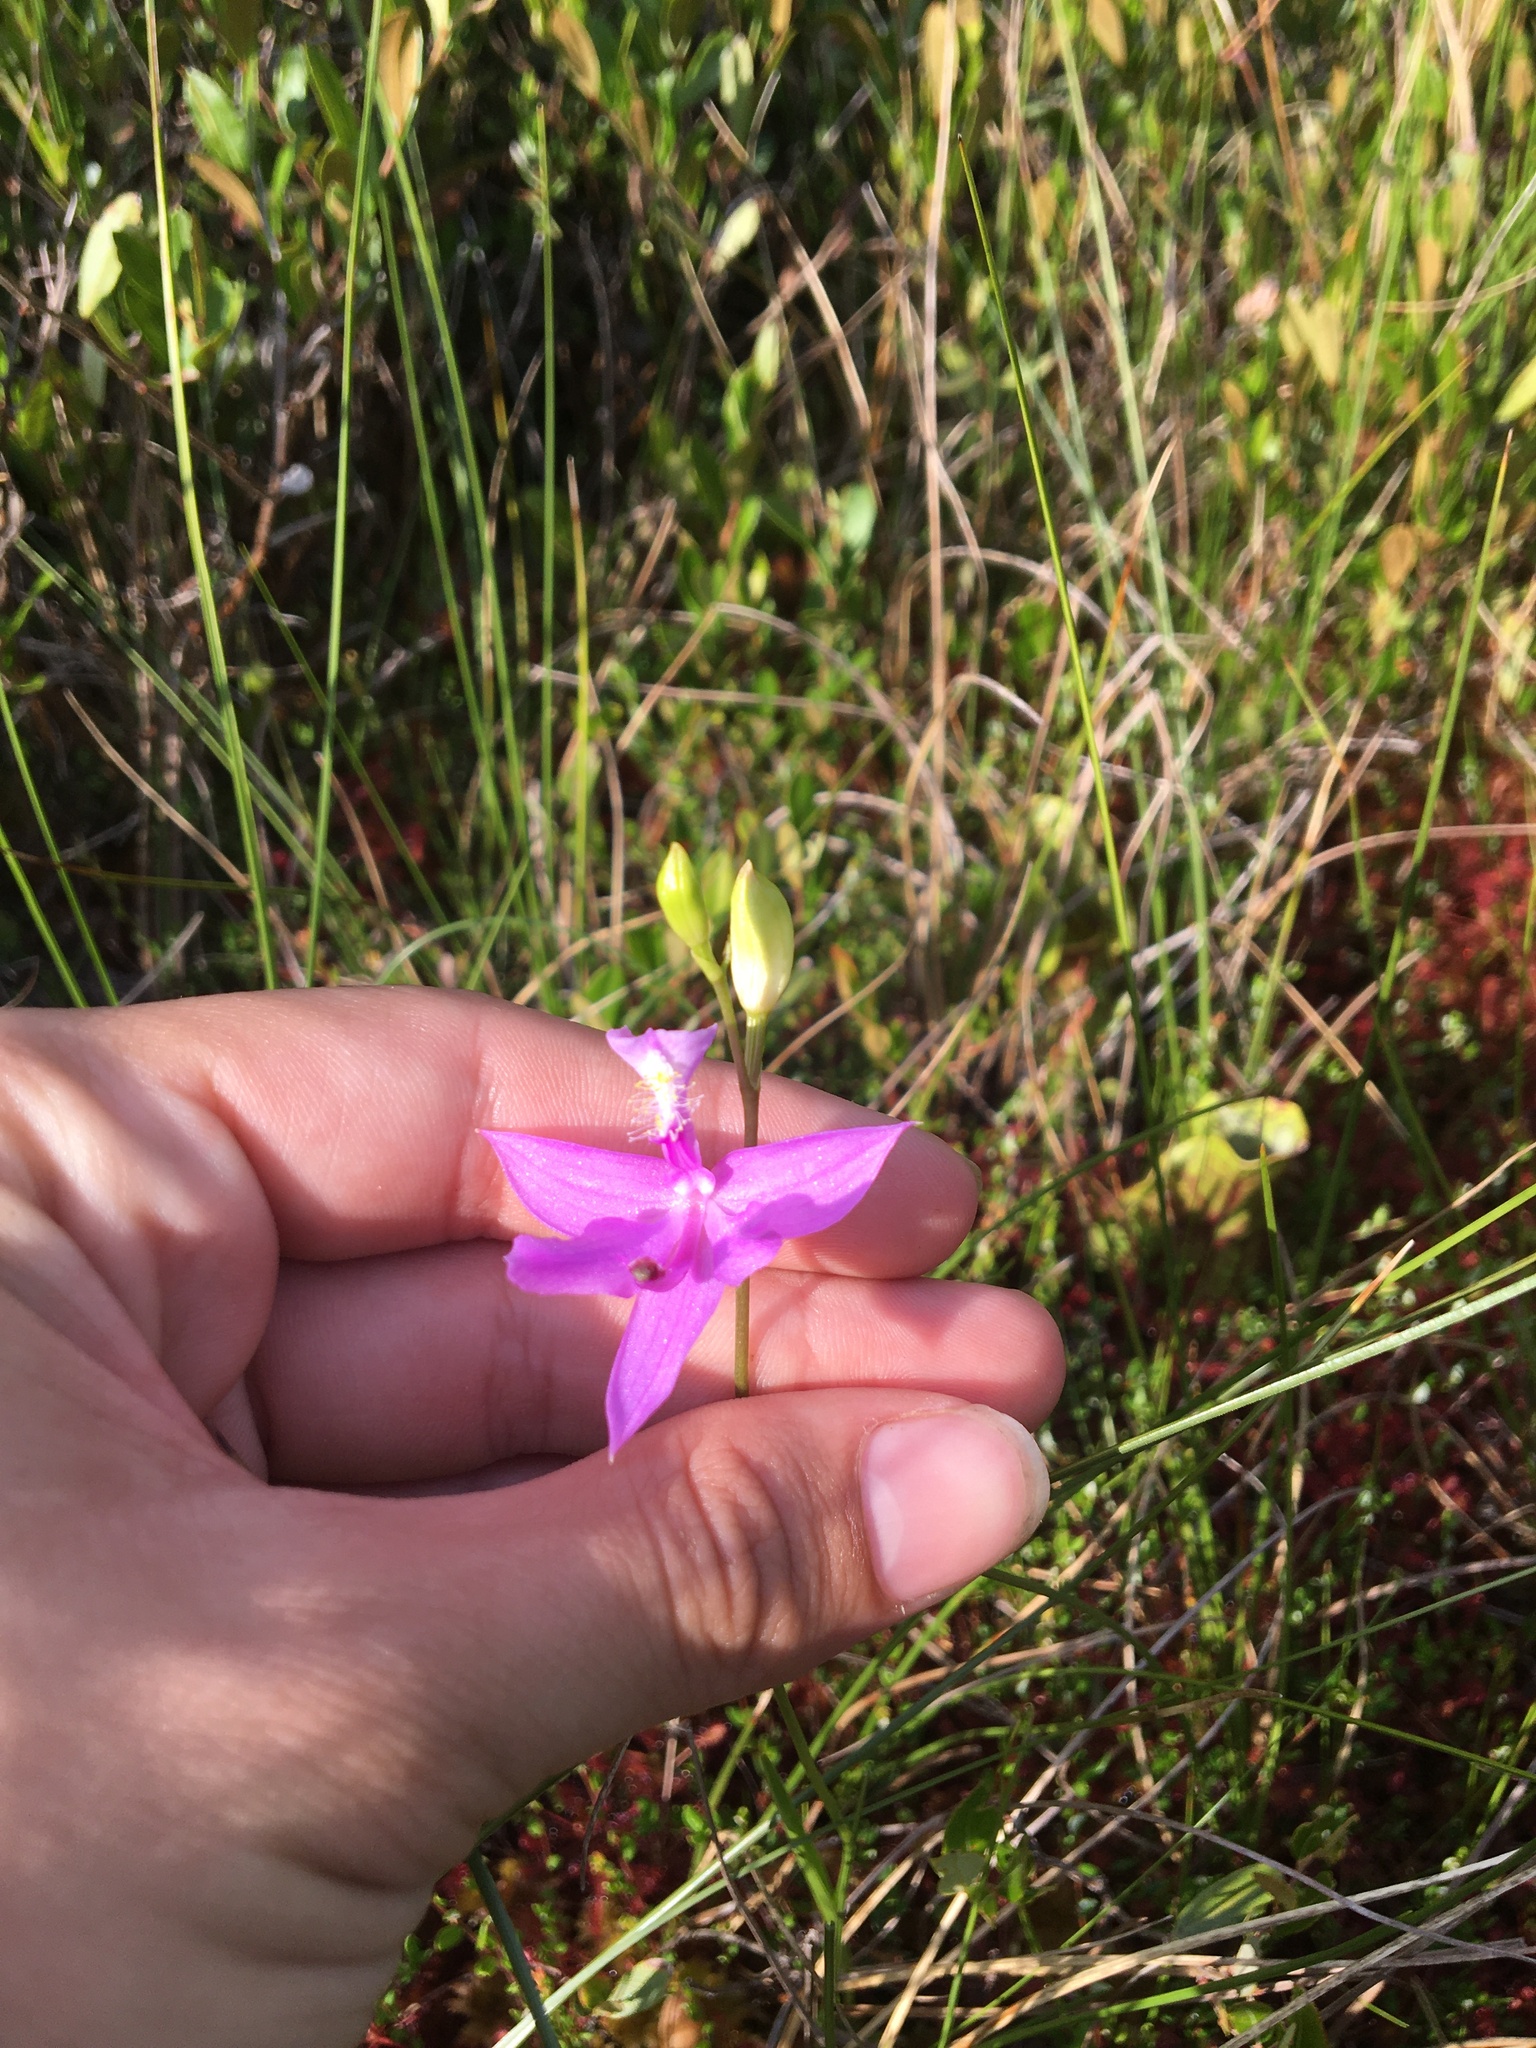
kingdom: Plantae
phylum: Tracheophyta
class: Liliopsida
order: Asparagales
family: Orchidaceae
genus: Calopogon
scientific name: Calopogon tuberosus
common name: Grass-pink
